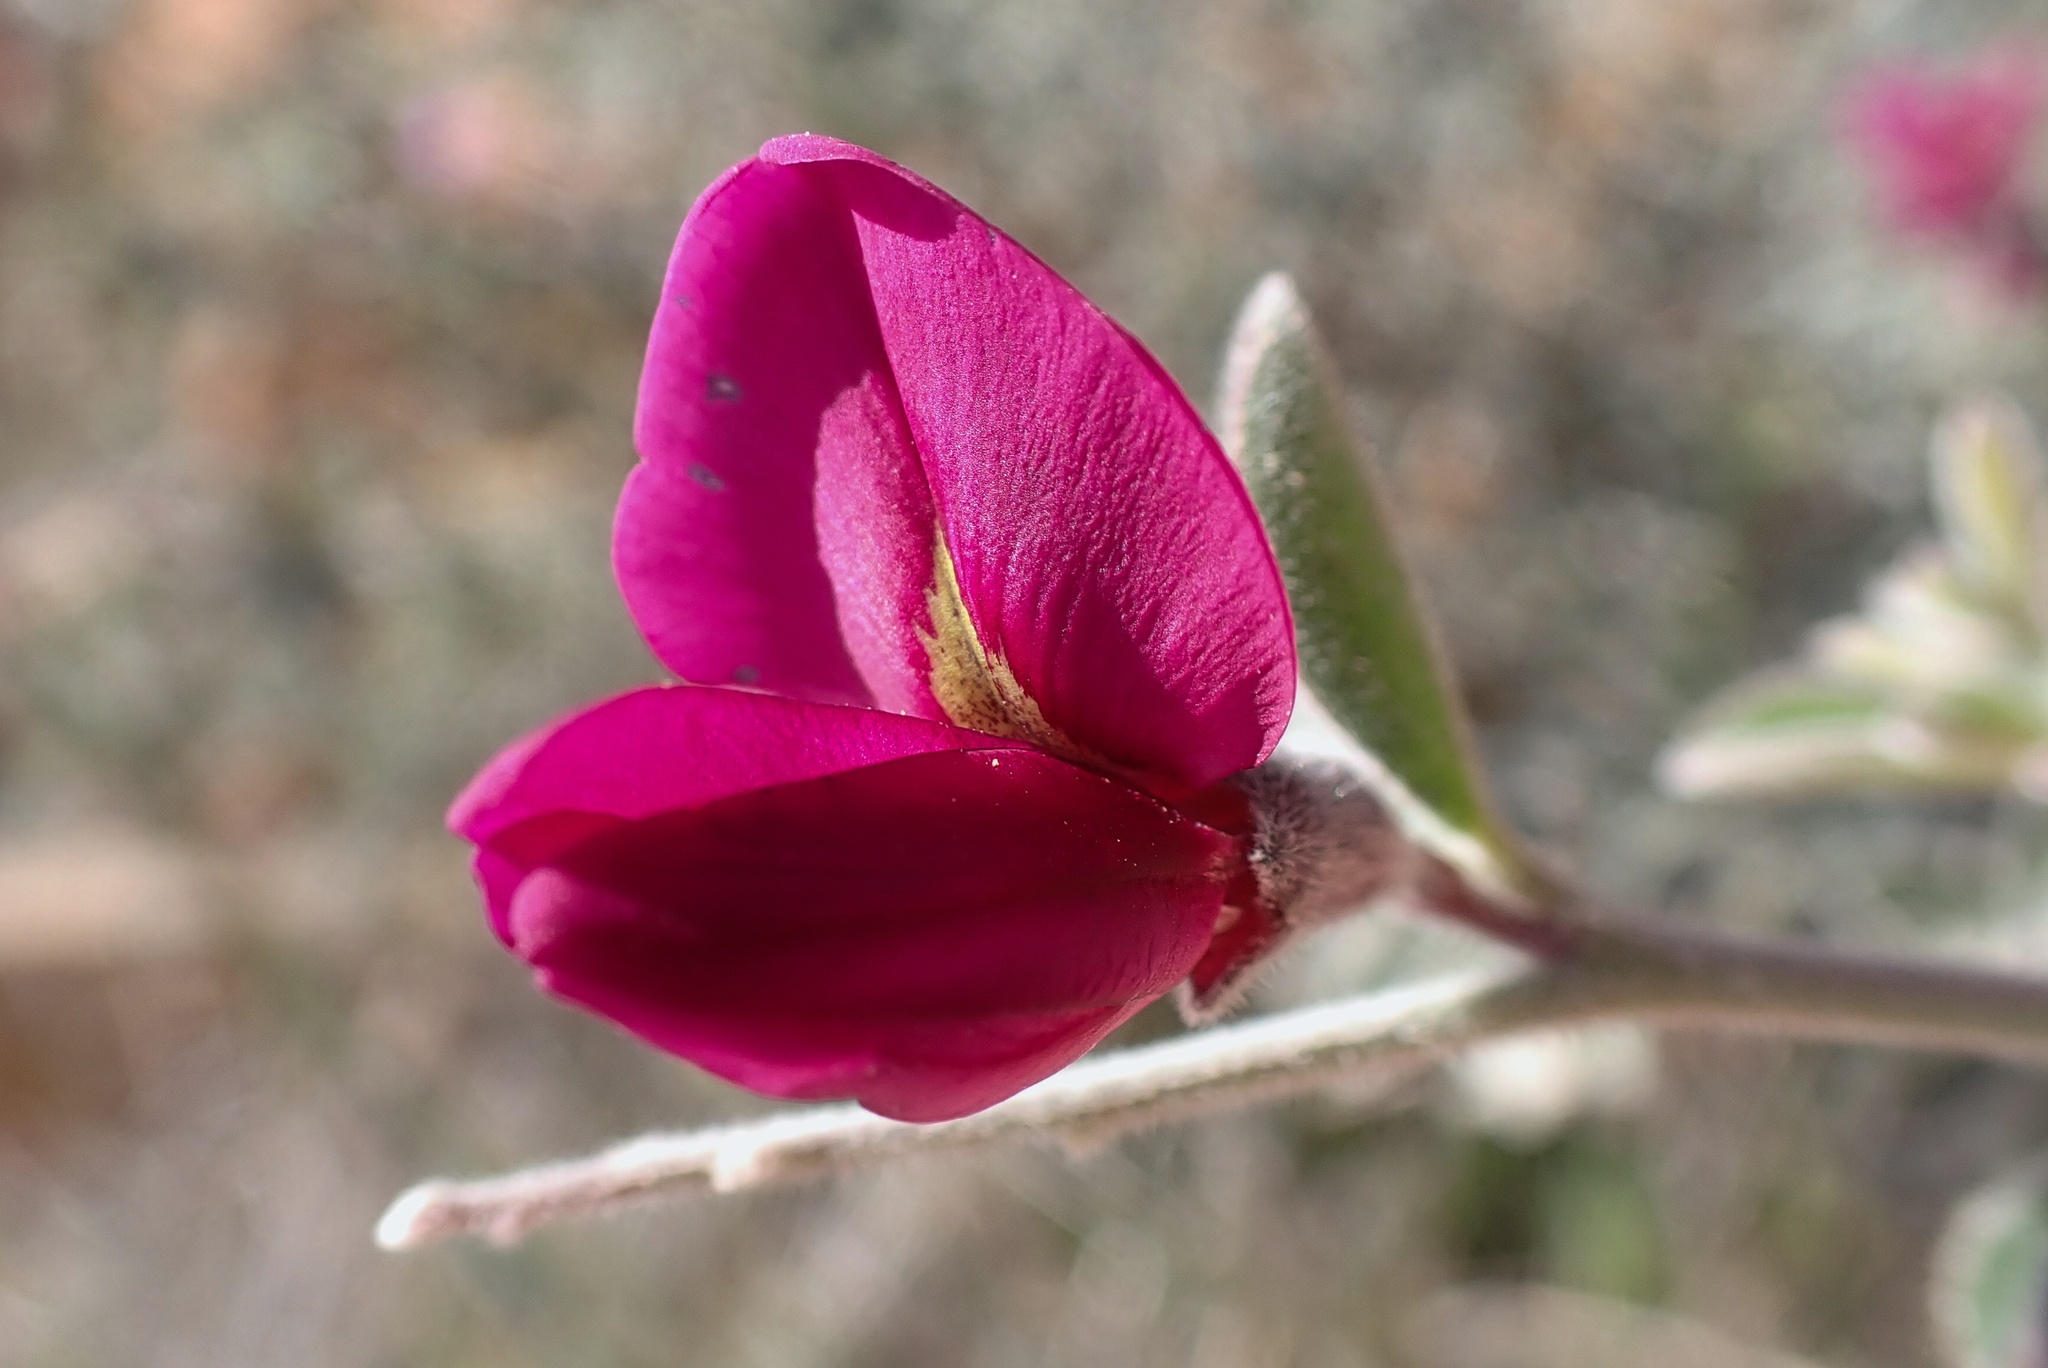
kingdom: Plantae
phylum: Tracheophyta
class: Magnoliopsida
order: Fabales
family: Fabaceae
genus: Pickeringia
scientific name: Pickeringia montana
